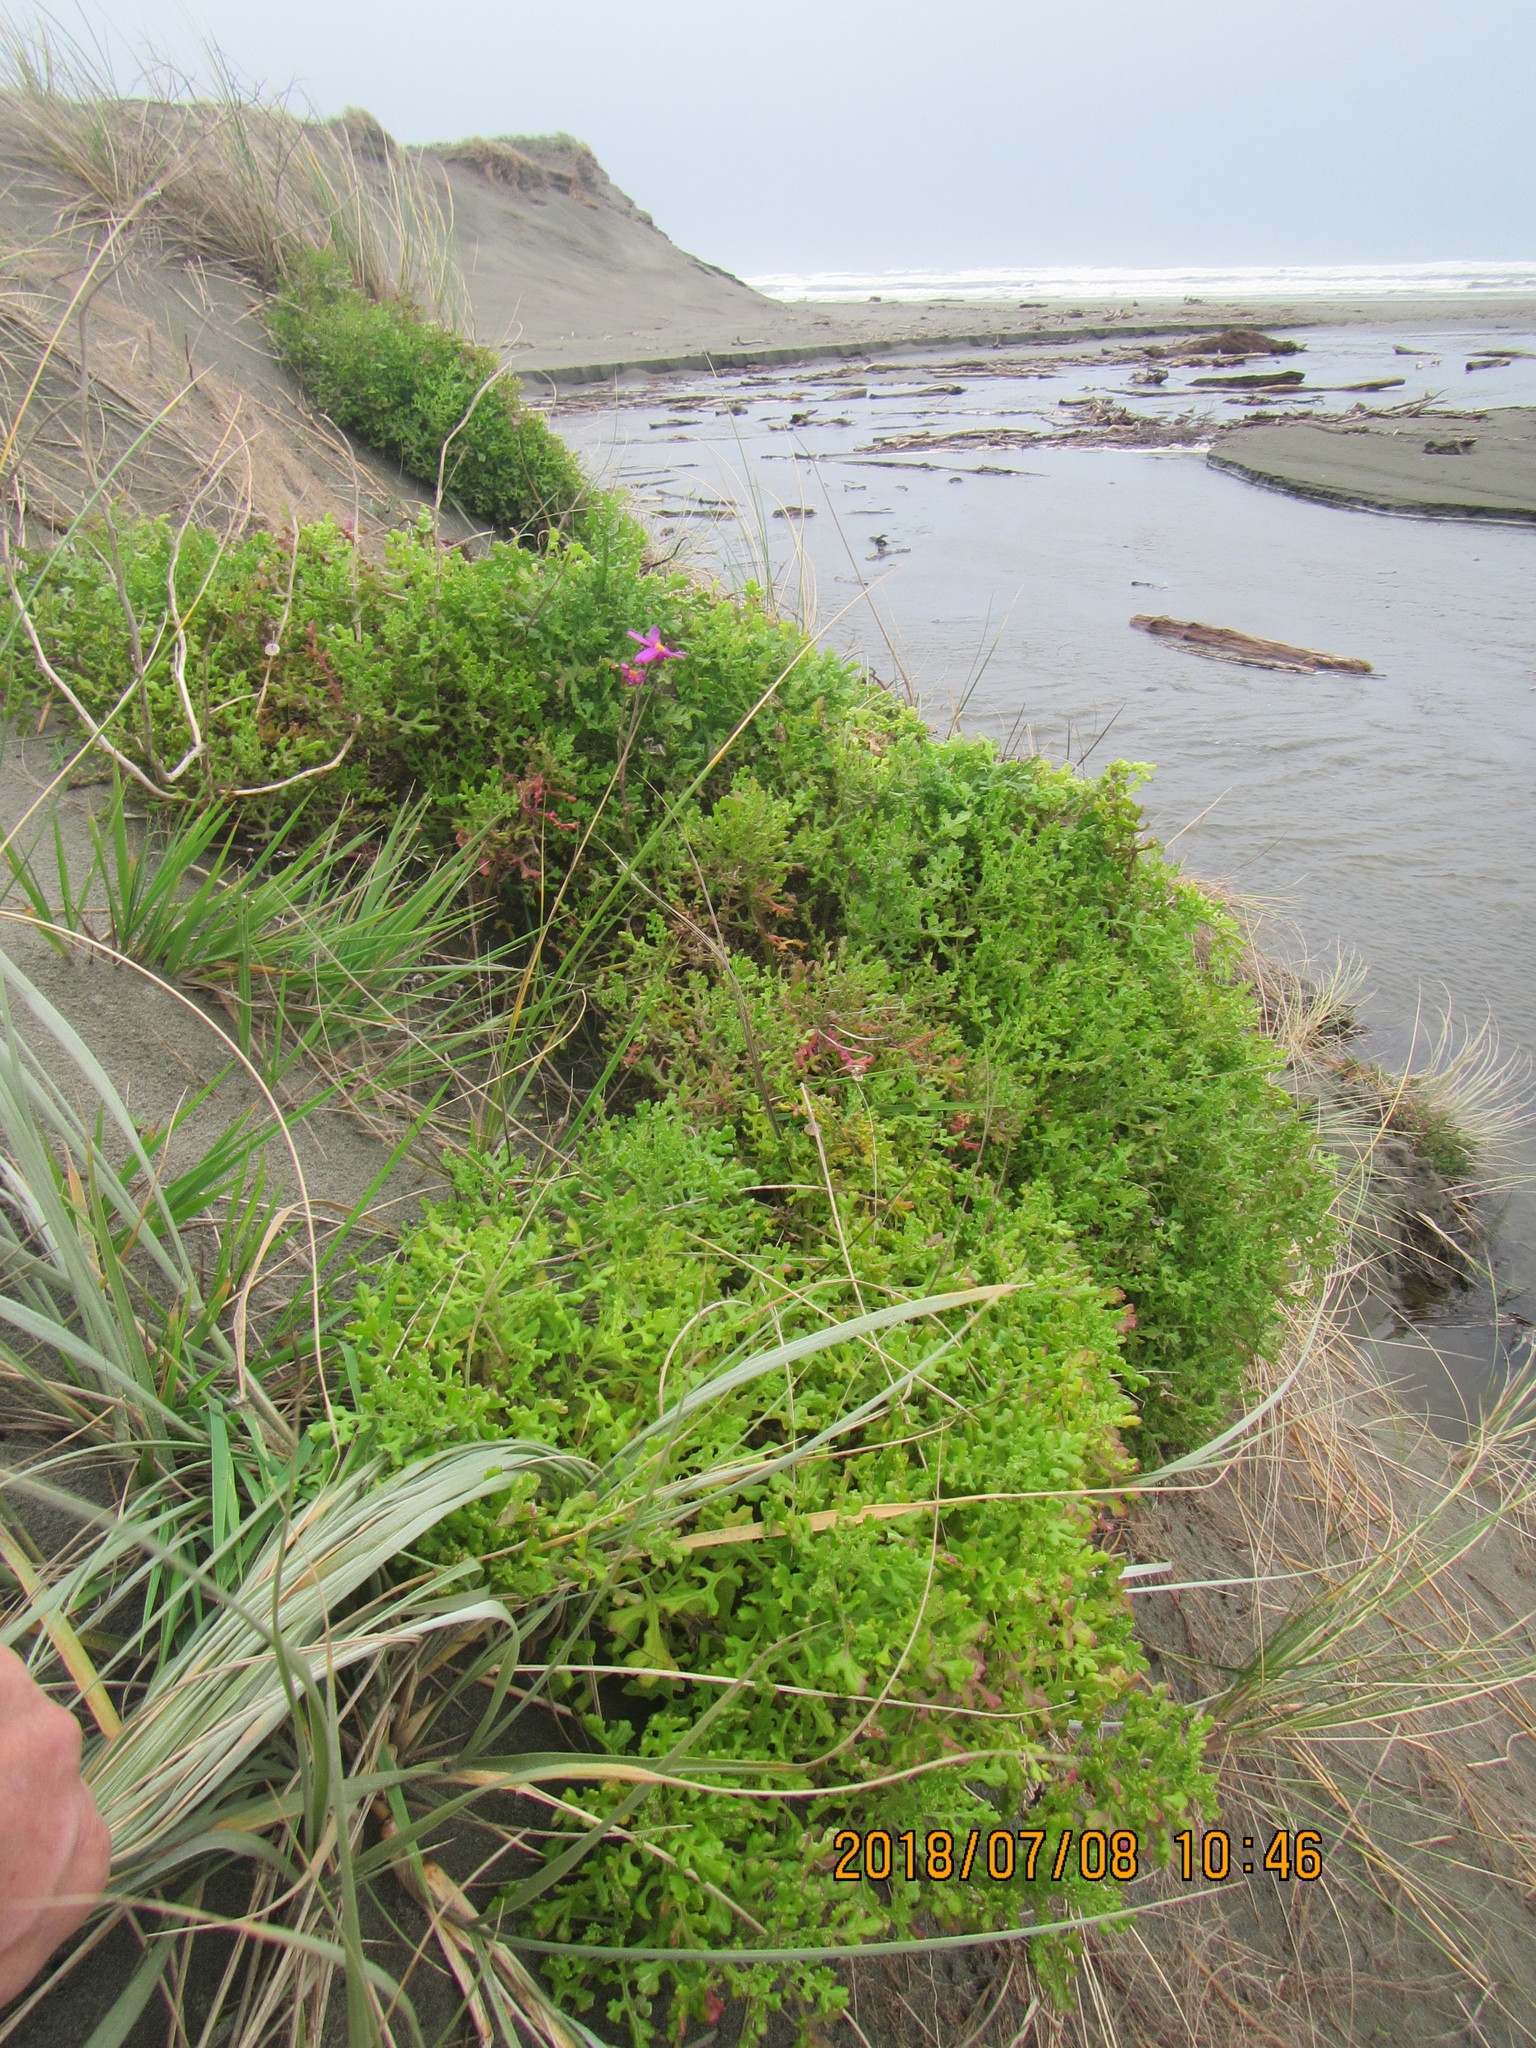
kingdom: Plantae
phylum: Tracheophyta
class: Magnoliopsida
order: Asterales
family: Asteraceae
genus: Senecio
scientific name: Senecio elegans
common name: Purple groundsel
